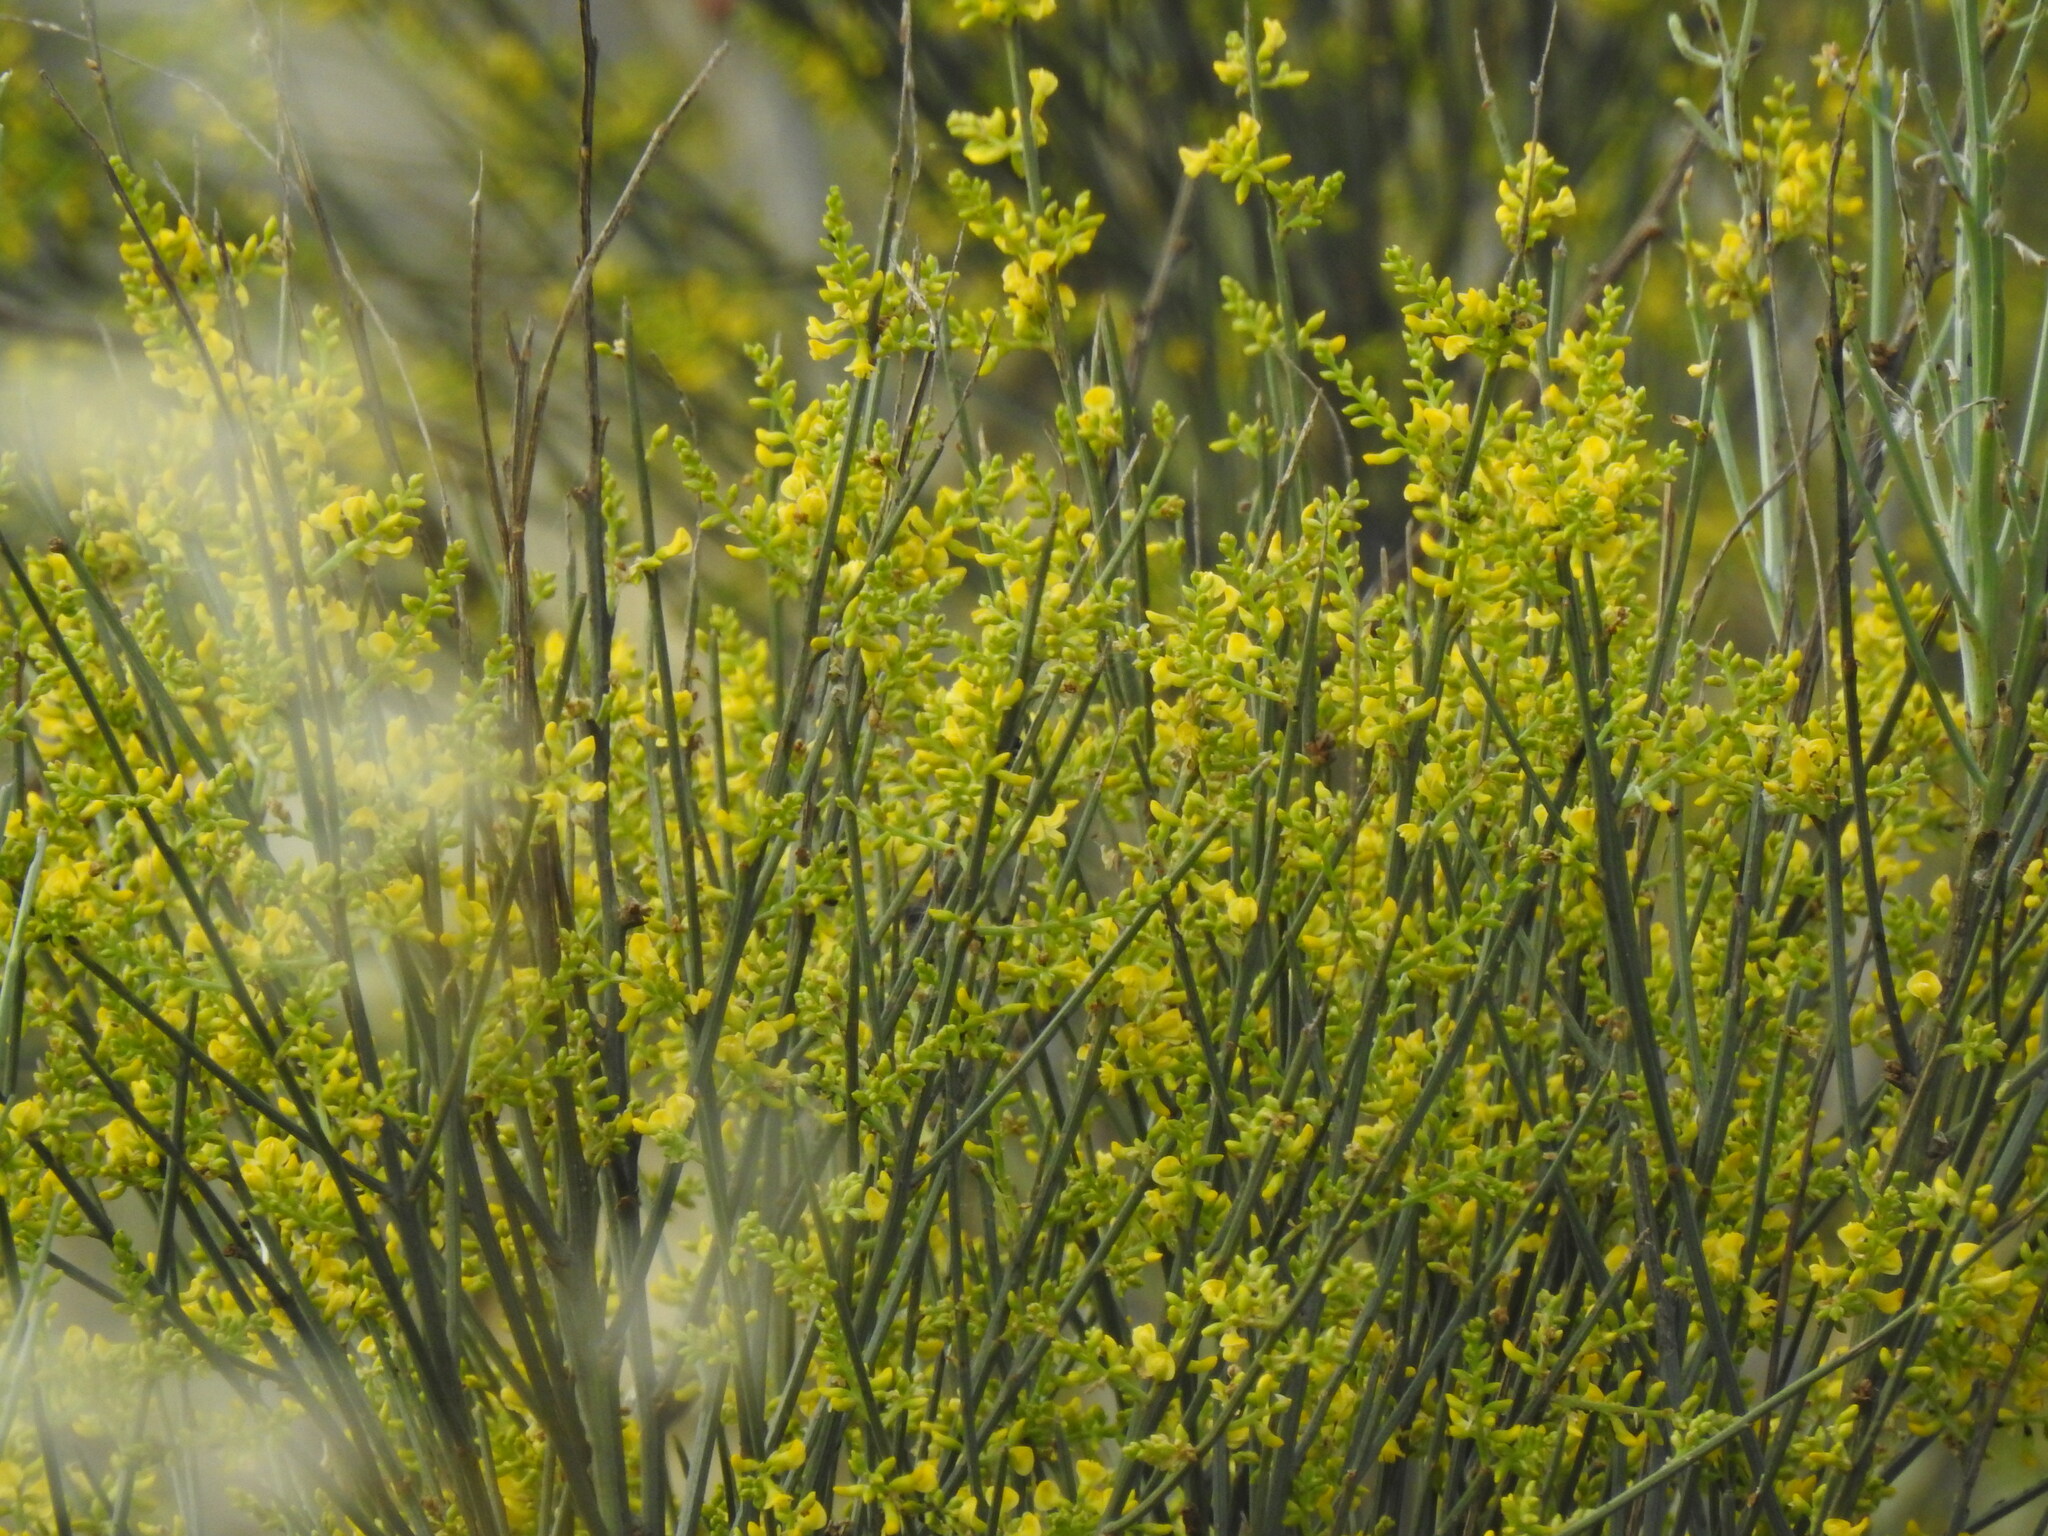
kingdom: Plantae
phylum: Tracheophyta
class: Magnoliopsida
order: Fabales
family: Fabaceae
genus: Retama
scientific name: Retama sphaerocarpa
